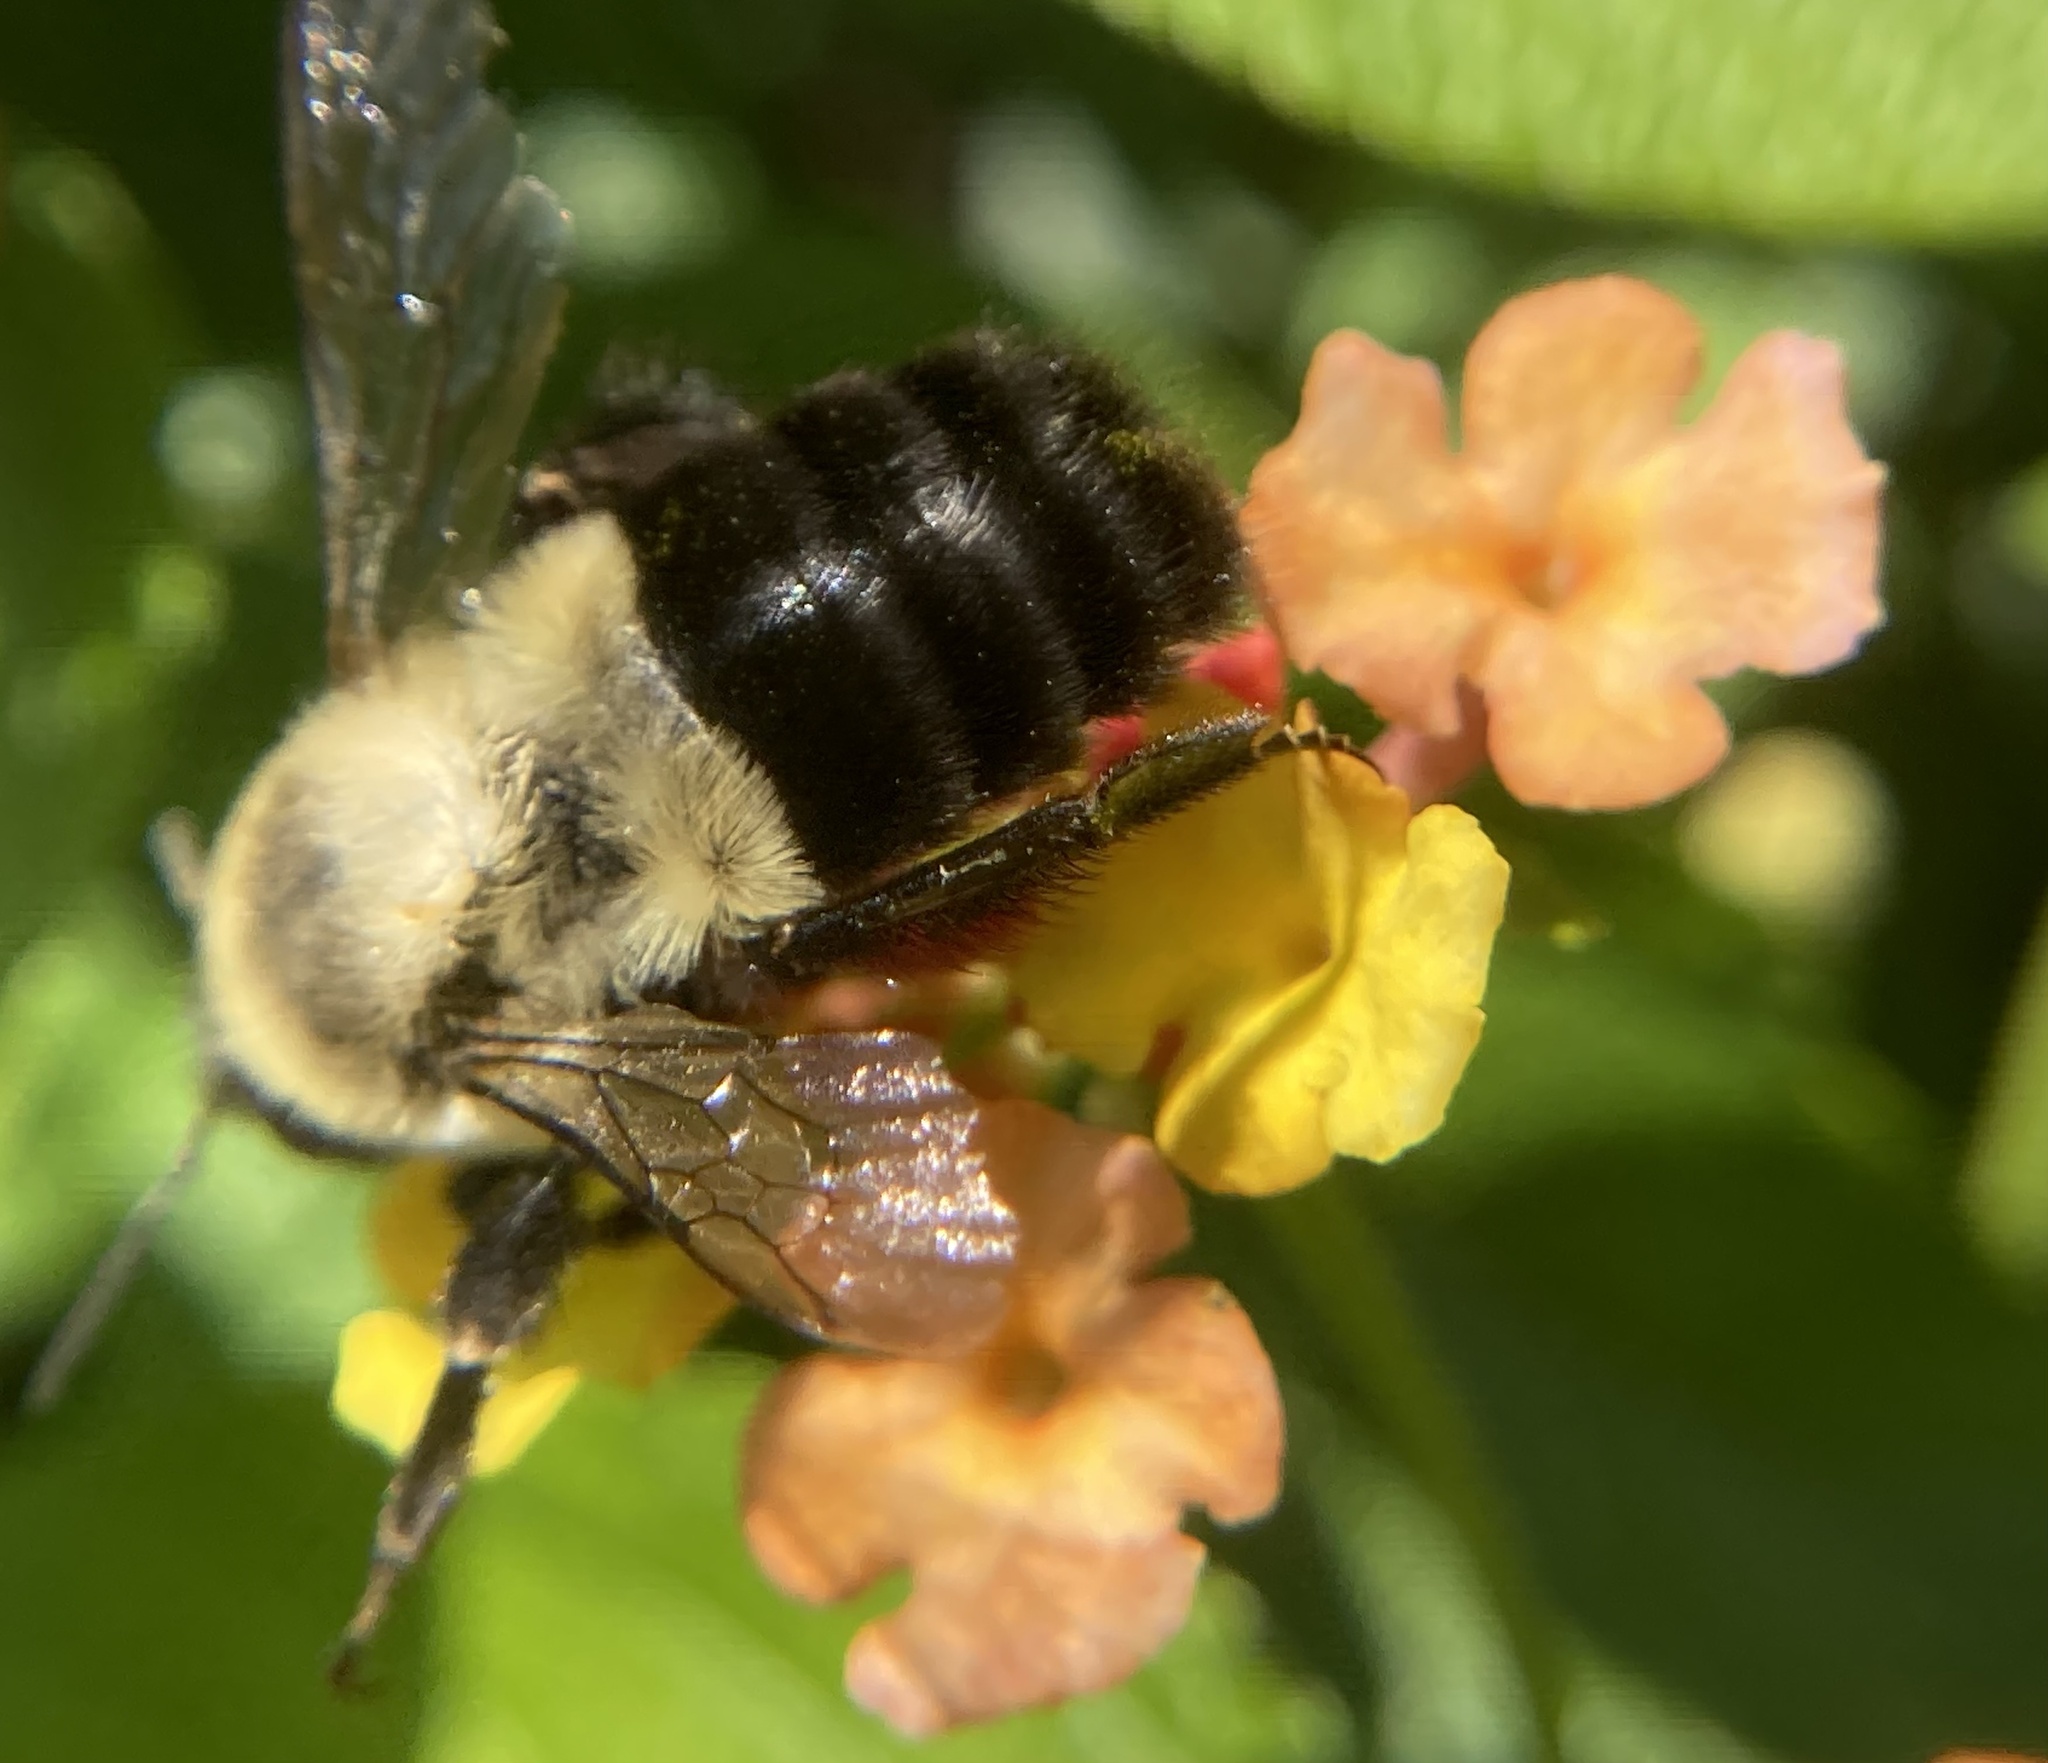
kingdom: Animalia
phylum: Arthropoda
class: Insecta
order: Hymenoptera
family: Apidae
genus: Bombus
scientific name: Bombus impatiens
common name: Common eastern bumble bee
